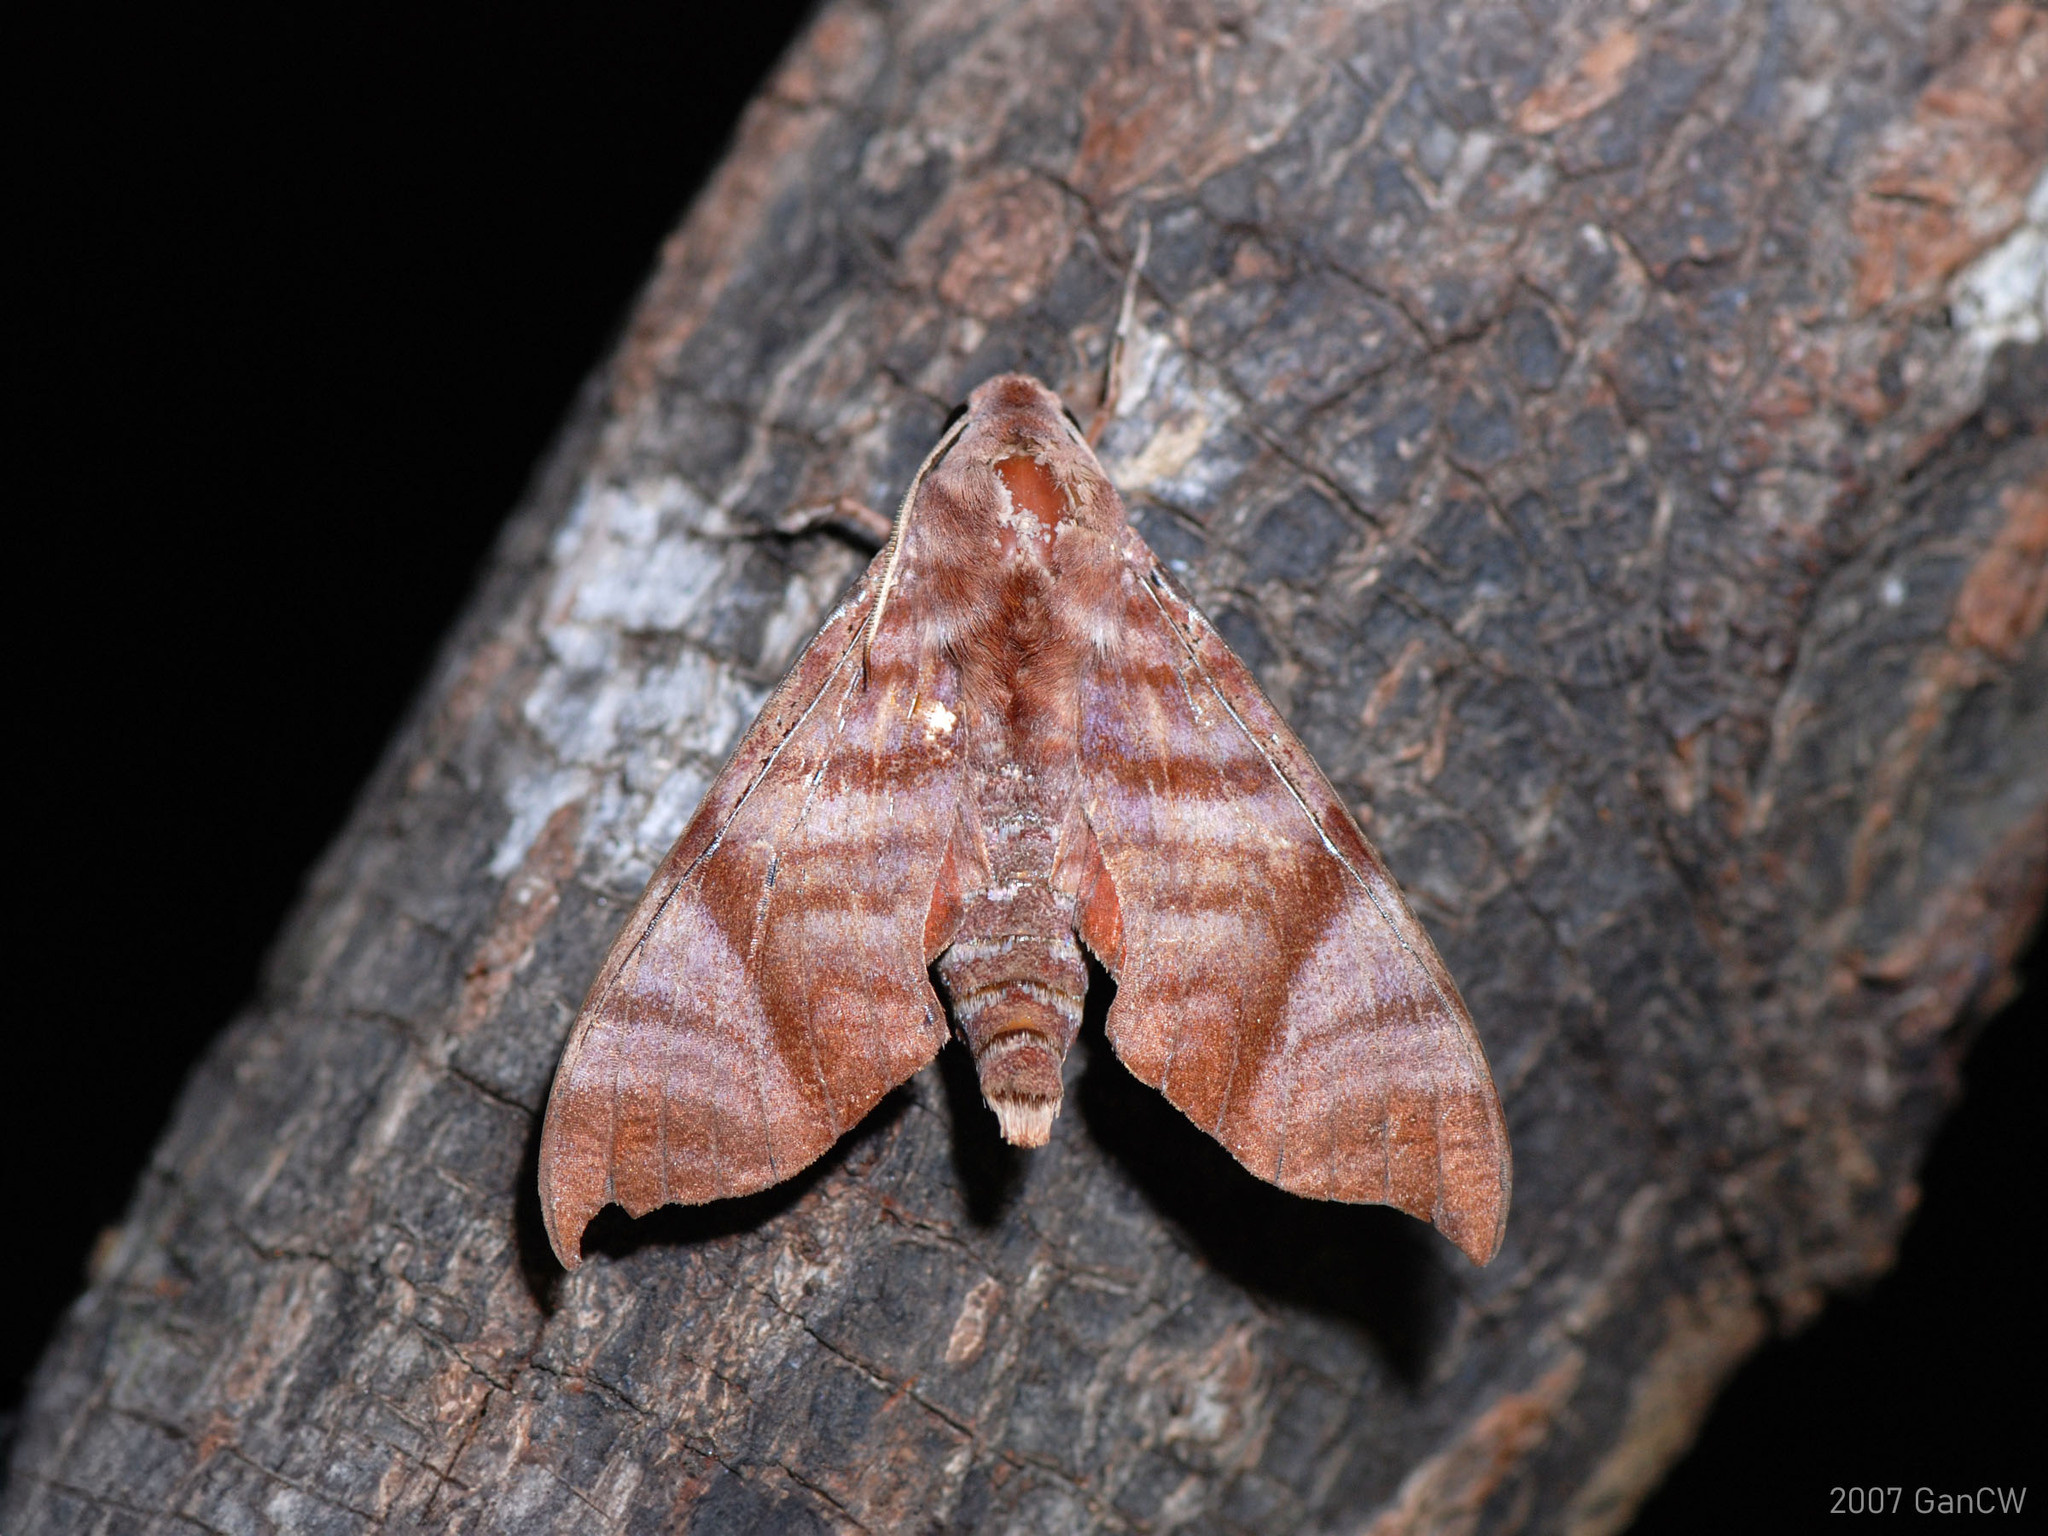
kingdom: Animalia
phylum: Arthropoda
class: Insecta
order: Lepidoptera
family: Sphingidae
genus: Dahira
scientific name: Dahira falcata
